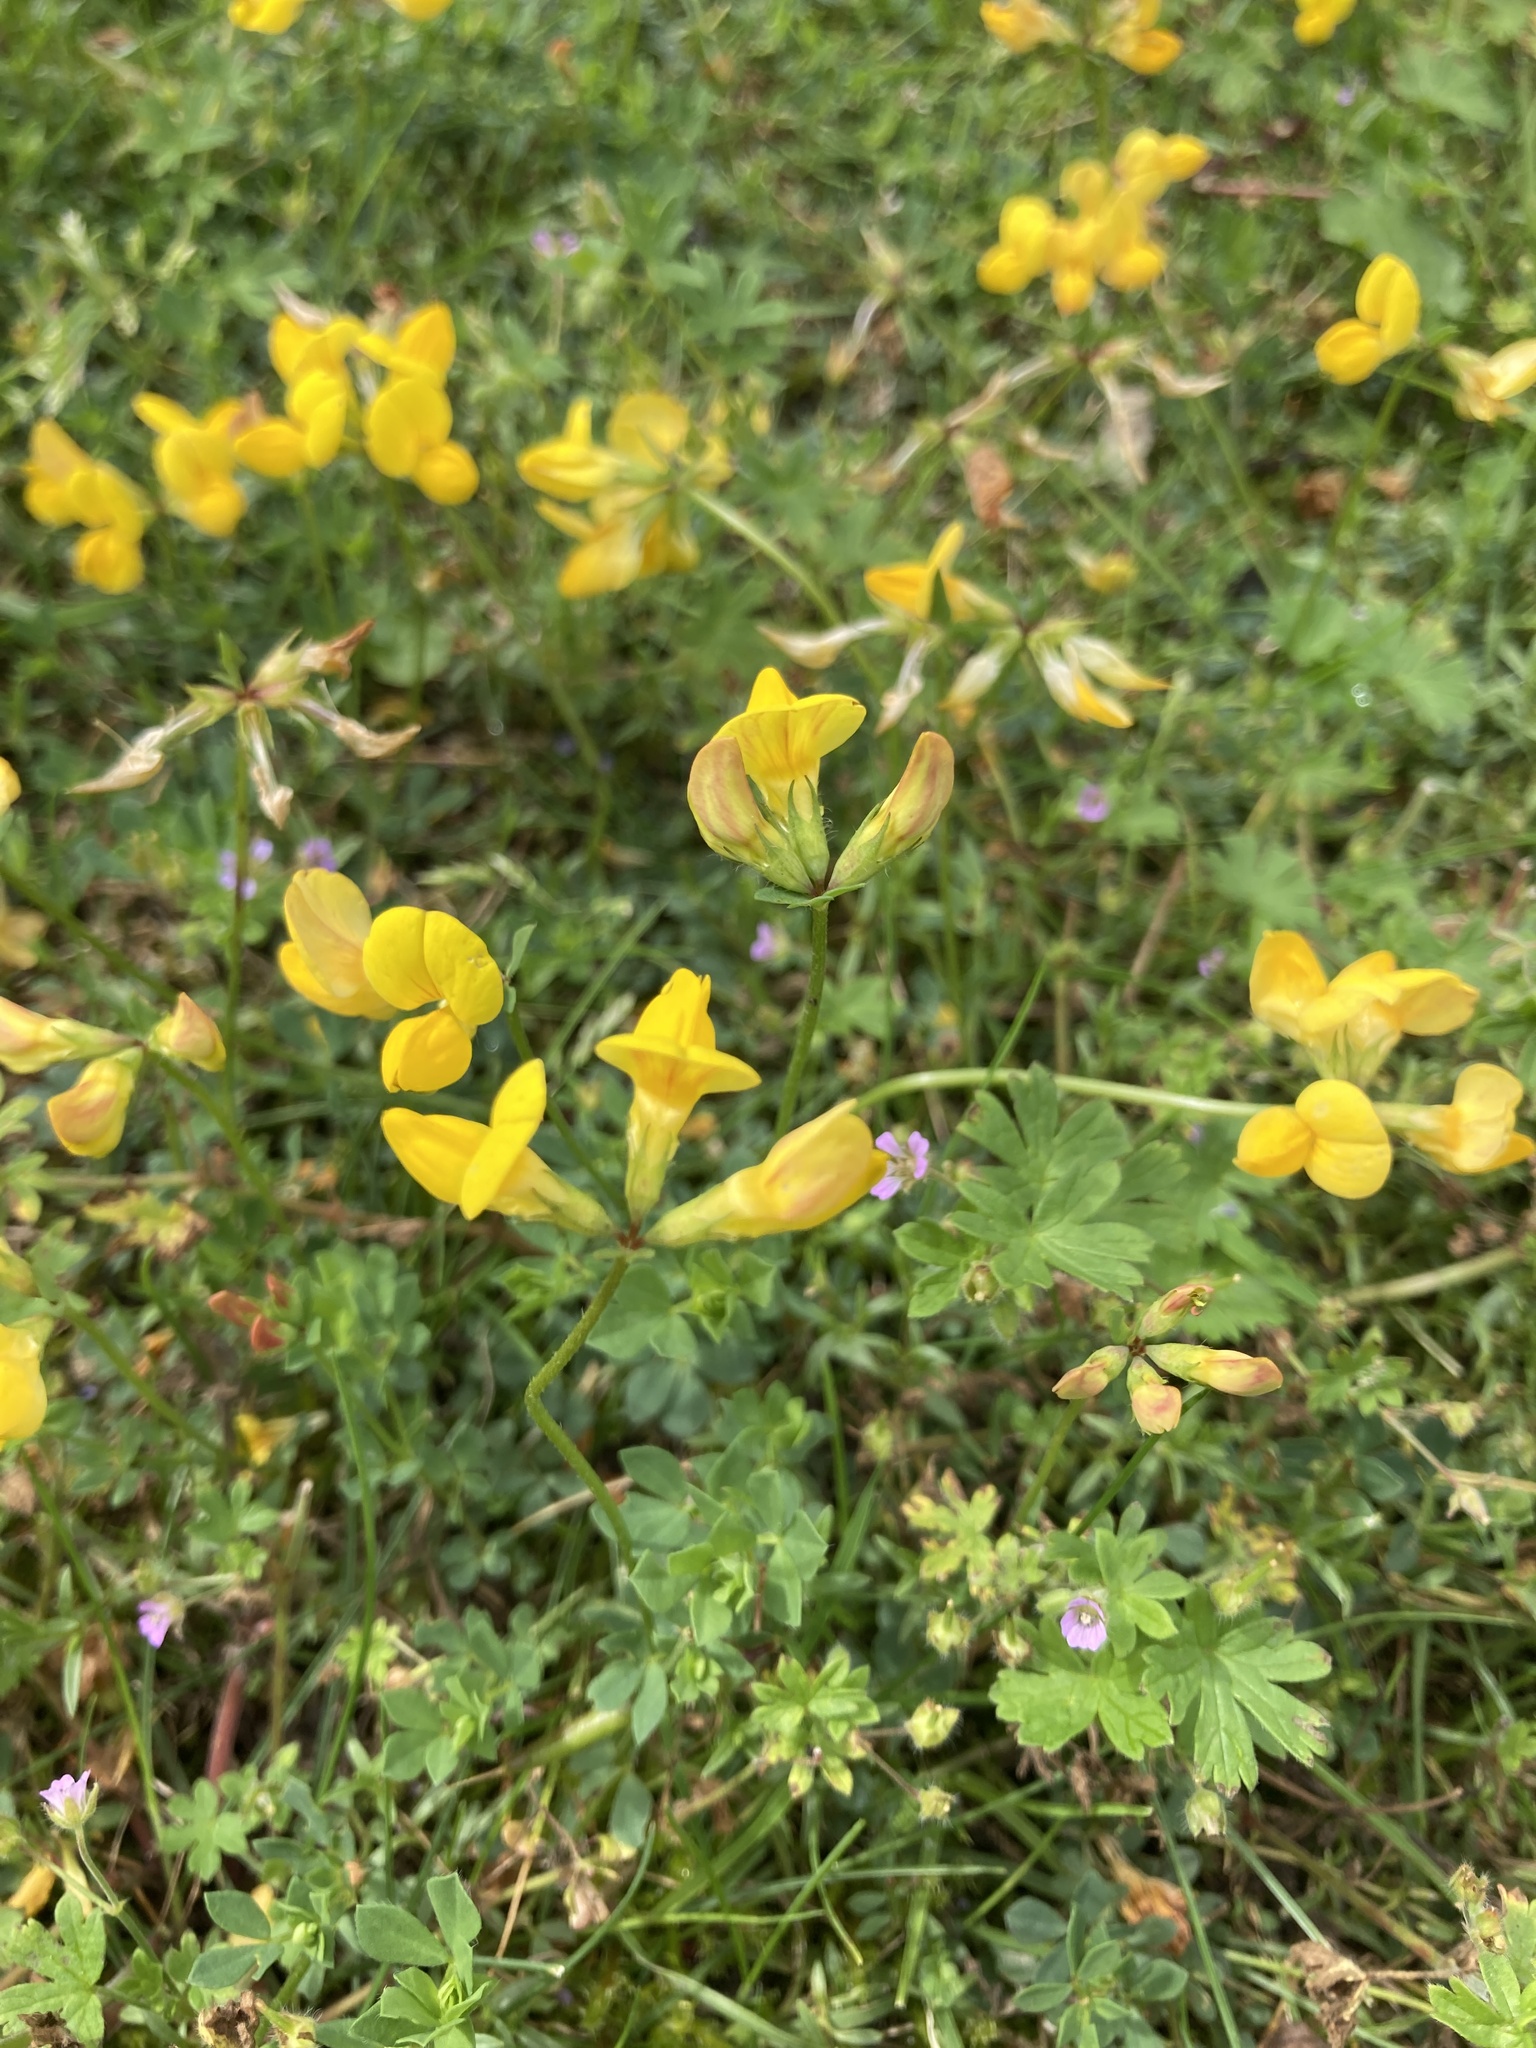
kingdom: Plantae
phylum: Tracheophyta
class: Magnoliopsida
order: Fabales
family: Fabaceae
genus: Lotus
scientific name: Lotus corniculatus
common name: Common bird's-foot-trefoil
